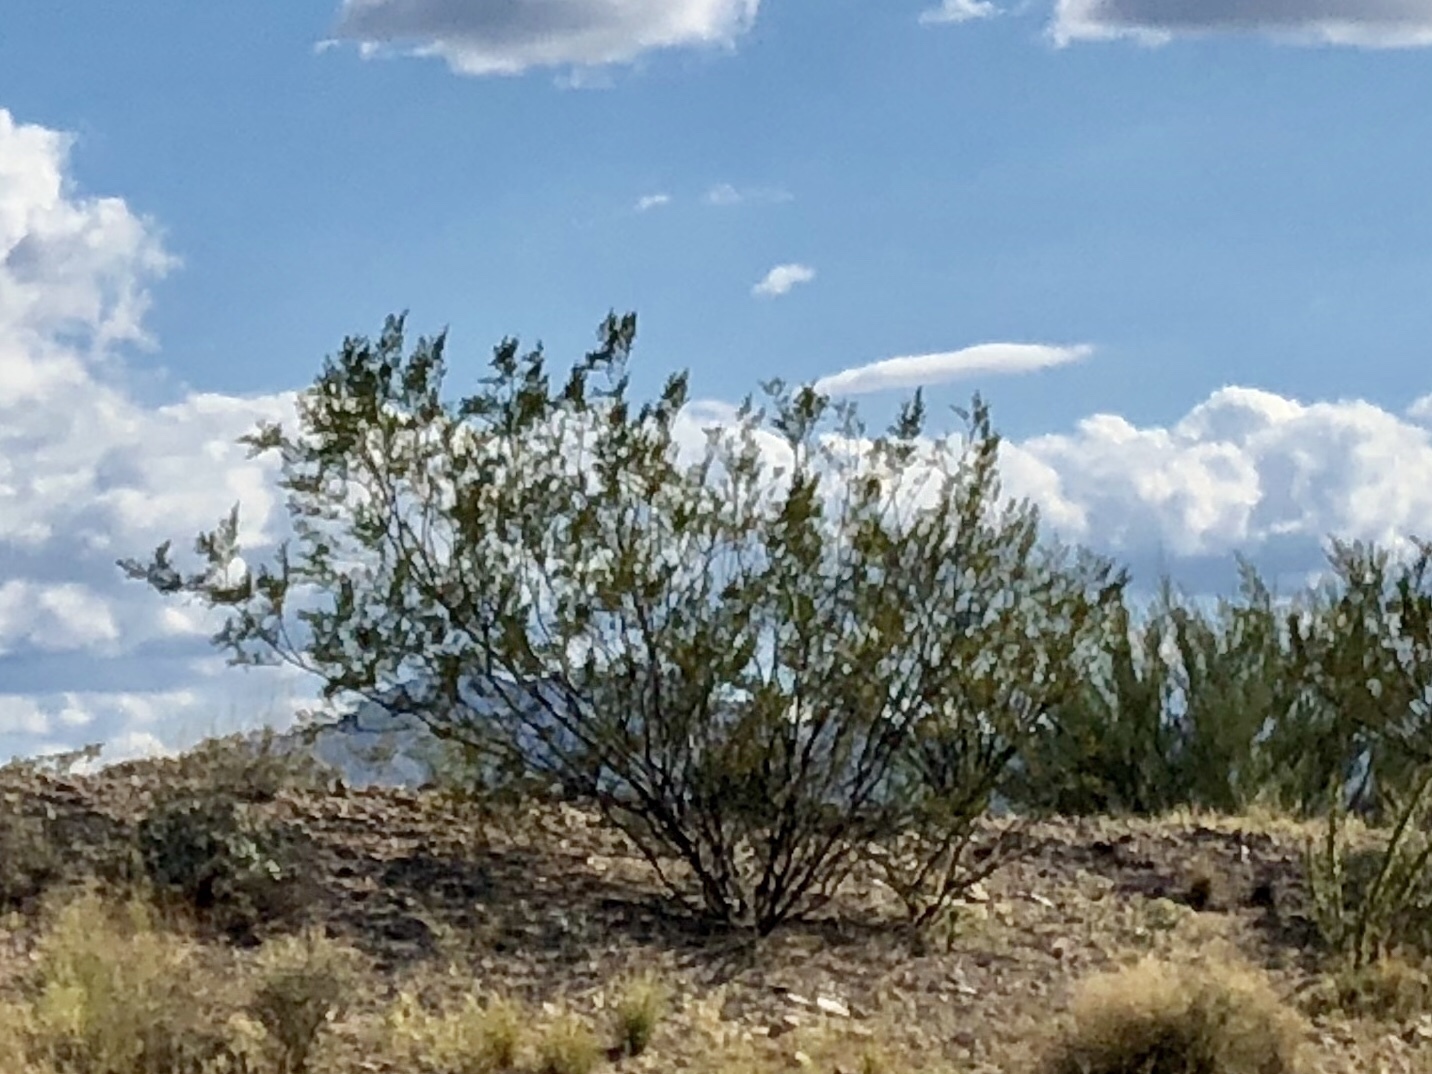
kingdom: Plantae
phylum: Tracheophyta
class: Magnoliopsida
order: Zygophyllales
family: Zygophyllaceae
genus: Larrea
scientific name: Larrea tridentata
